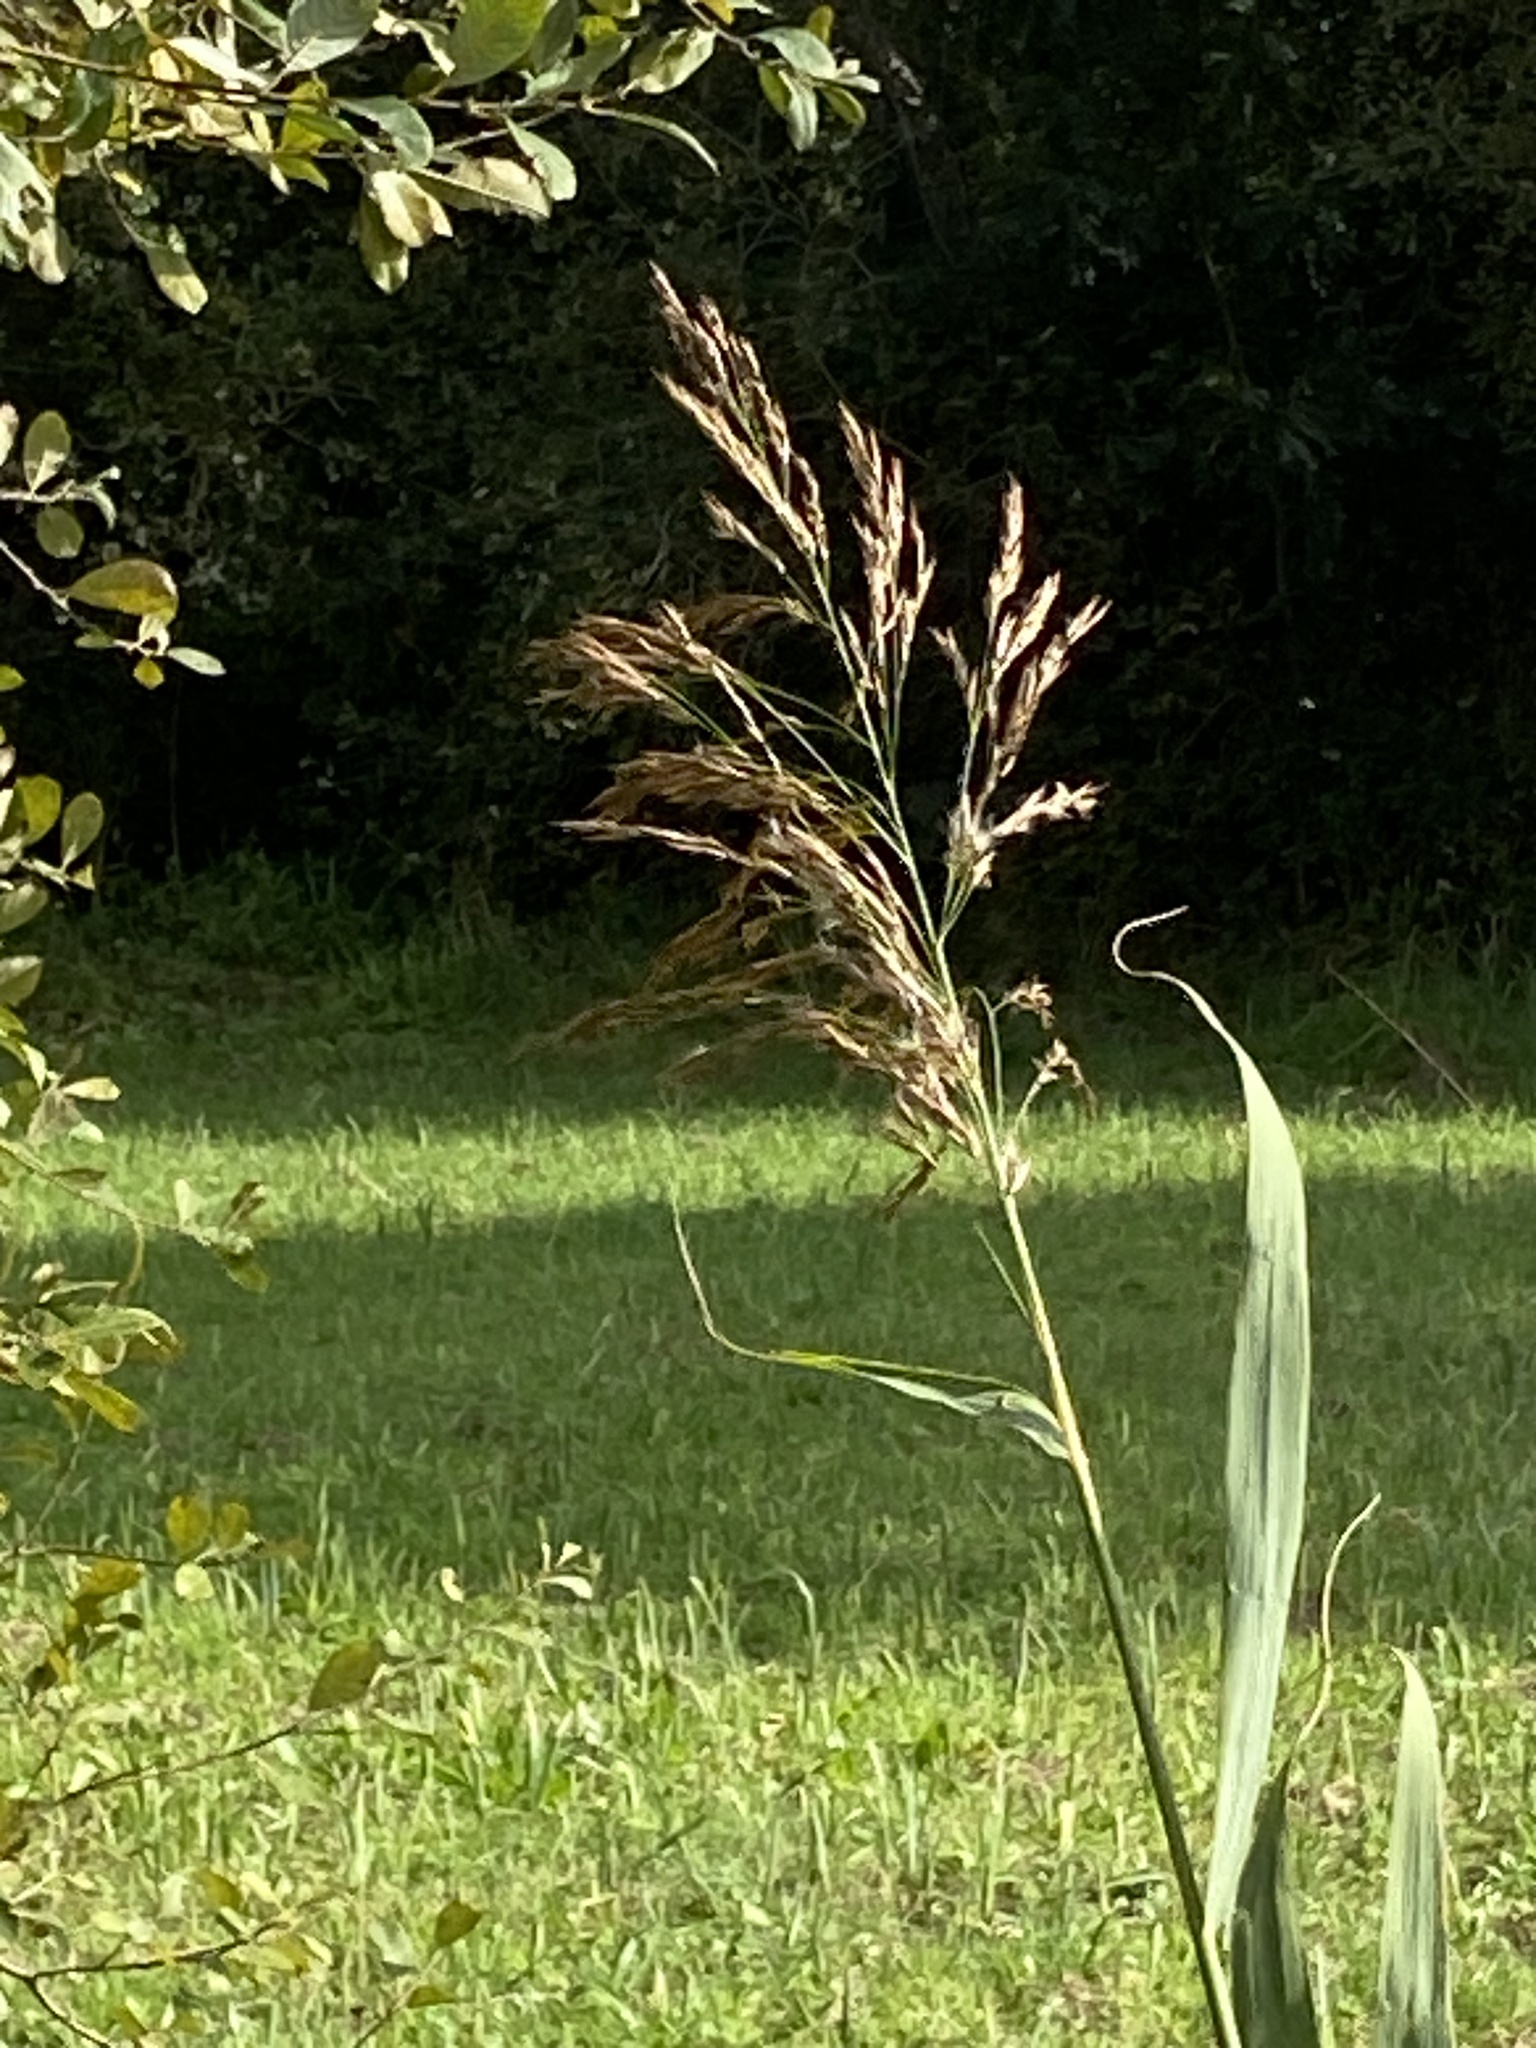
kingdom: Plantae
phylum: Tracheophyta
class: Liliopsida
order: Poales
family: Poaceae
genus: Phragmites
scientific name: Phragmites australis
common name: Common reed
